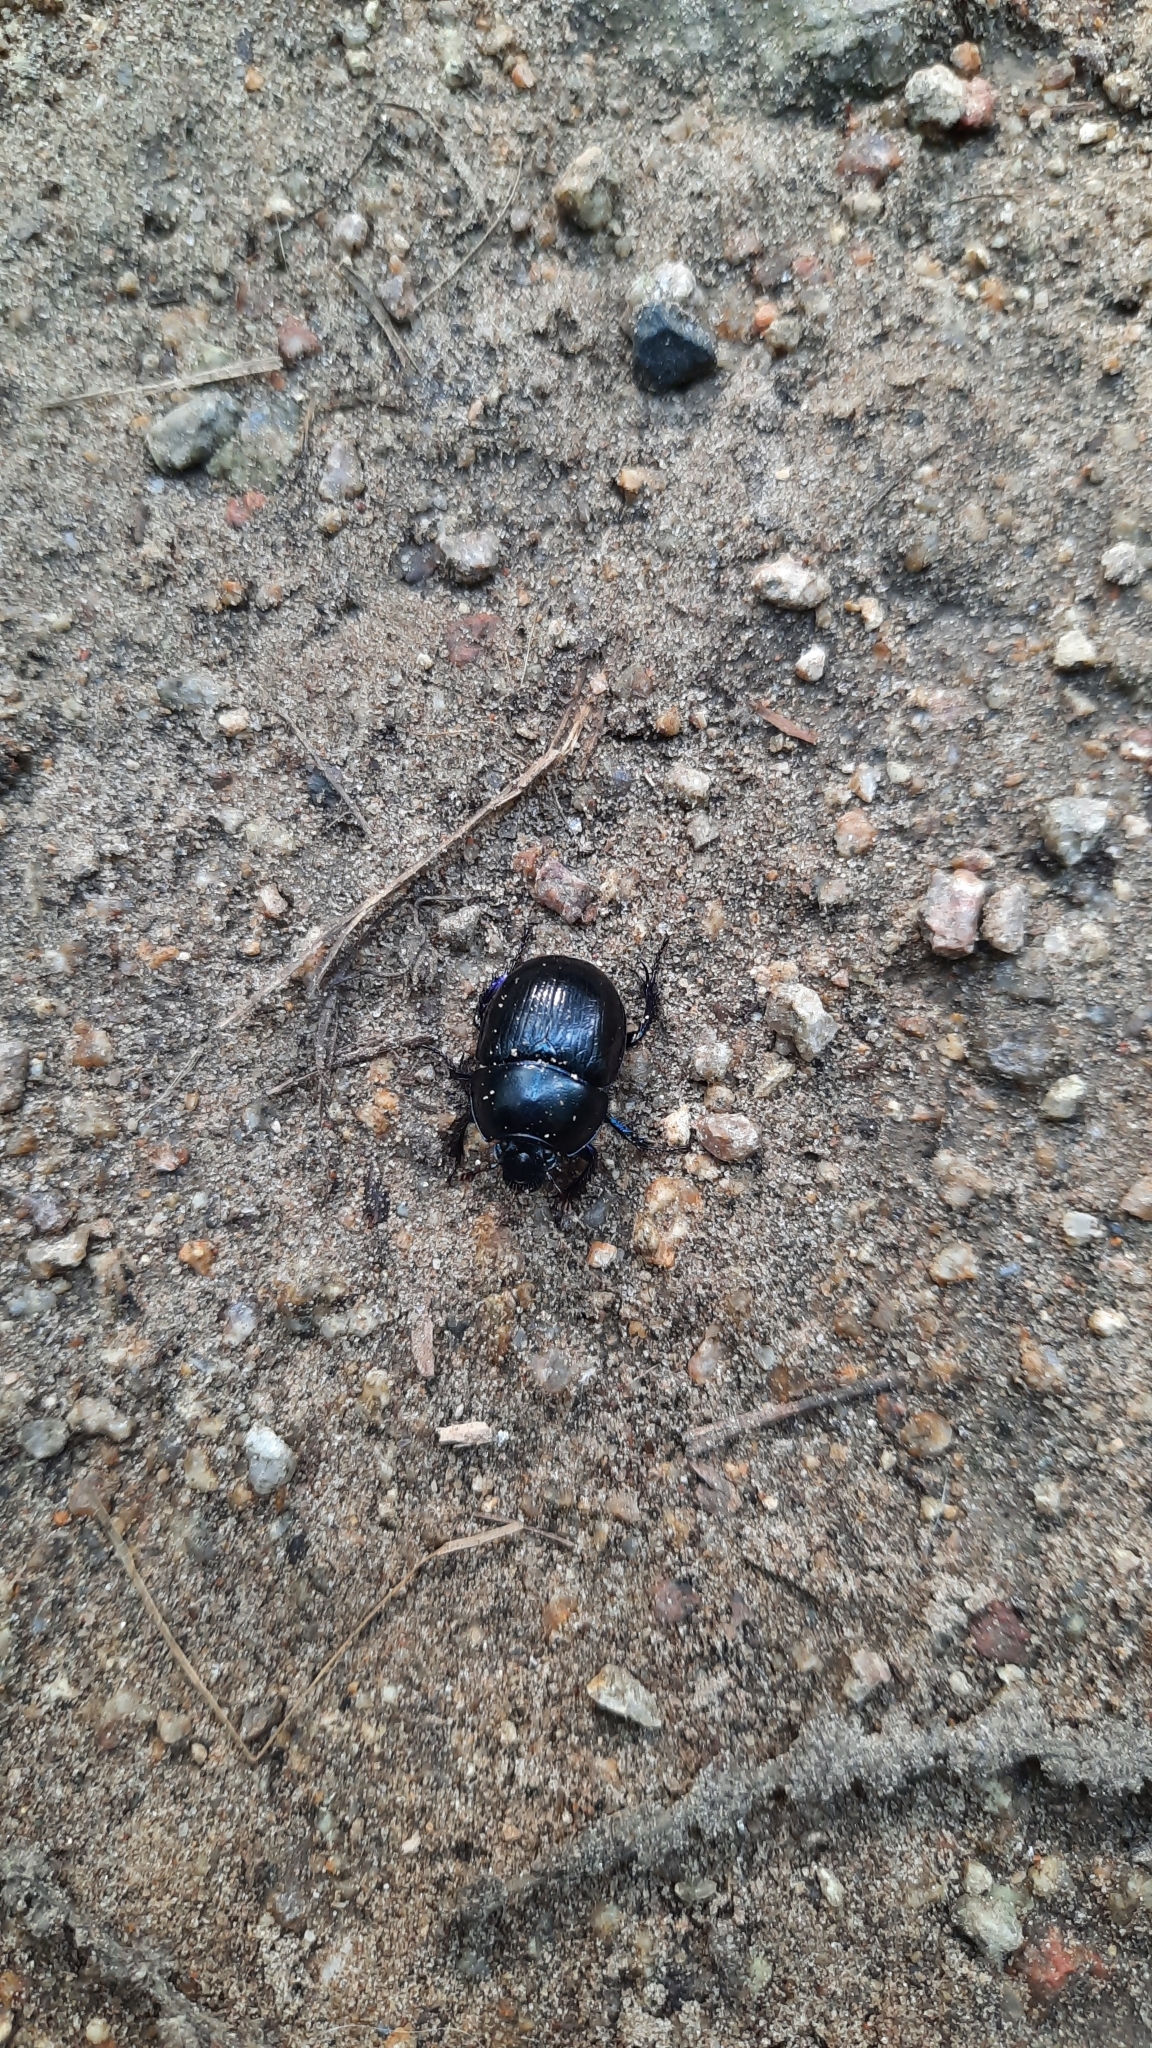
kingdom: Animalia
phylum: Arthropoda
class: Insecta
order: Coleoptera
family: Geotrupidae
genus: Anoplotrupes
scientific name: Anoplotrupes stercorosus
